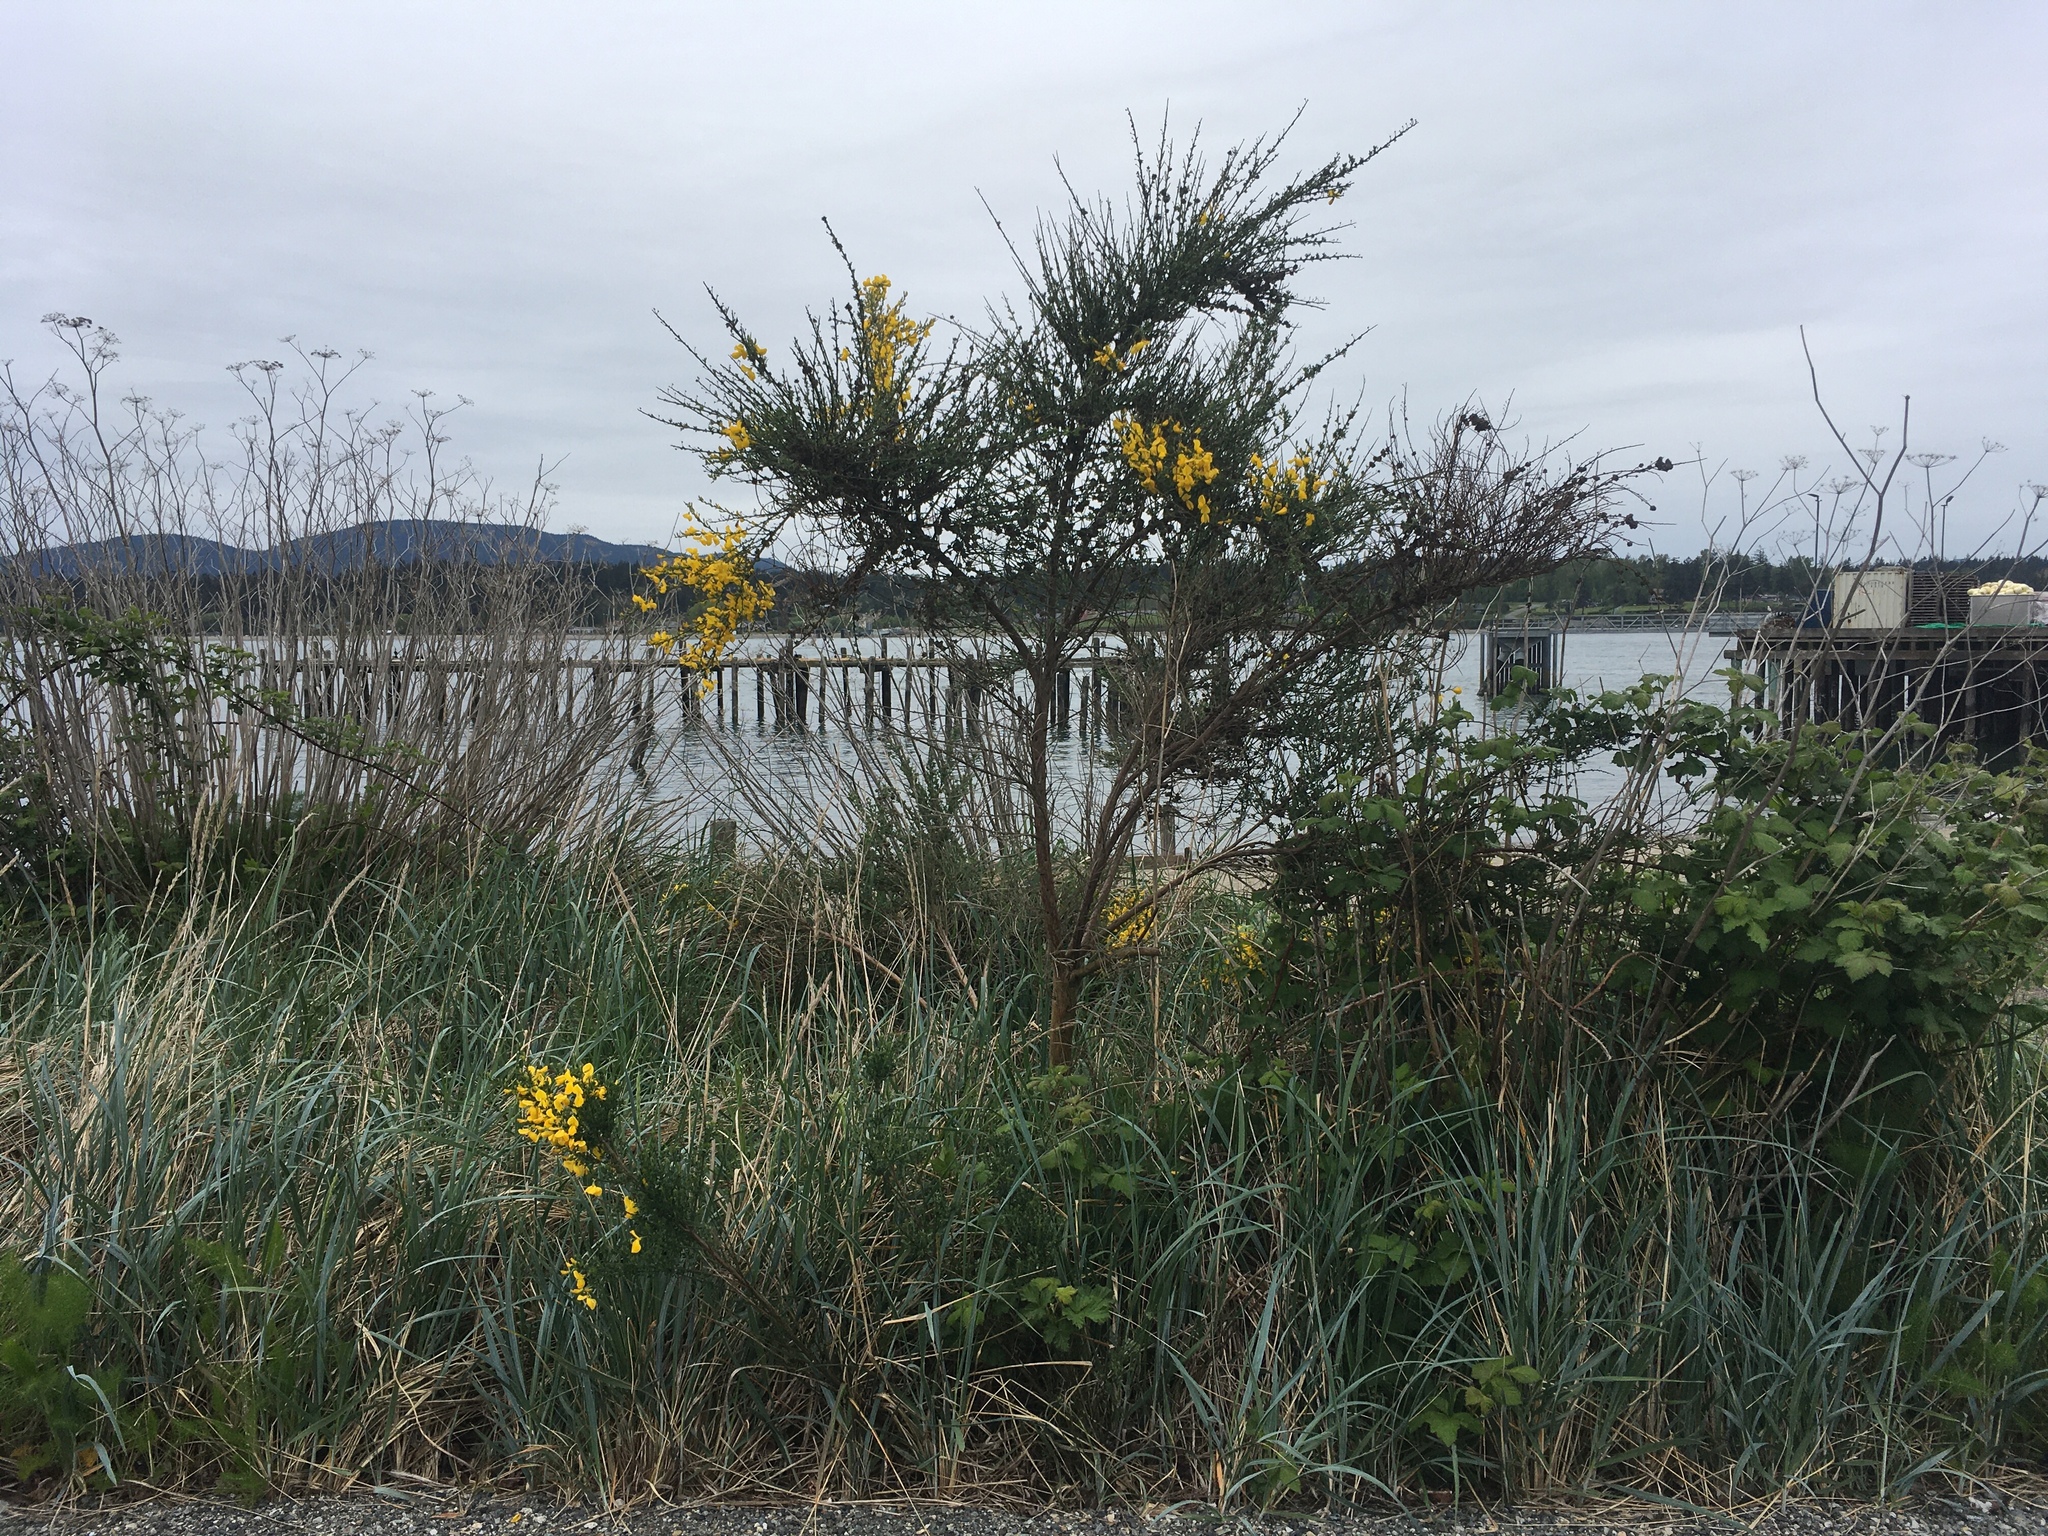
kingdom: Plantae
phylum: Tracheophyta
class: Magnoliopsida
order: Fabales
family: Fabaceae
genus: Cytisus
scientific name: Cytisus scoparius
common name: Scotch broom
